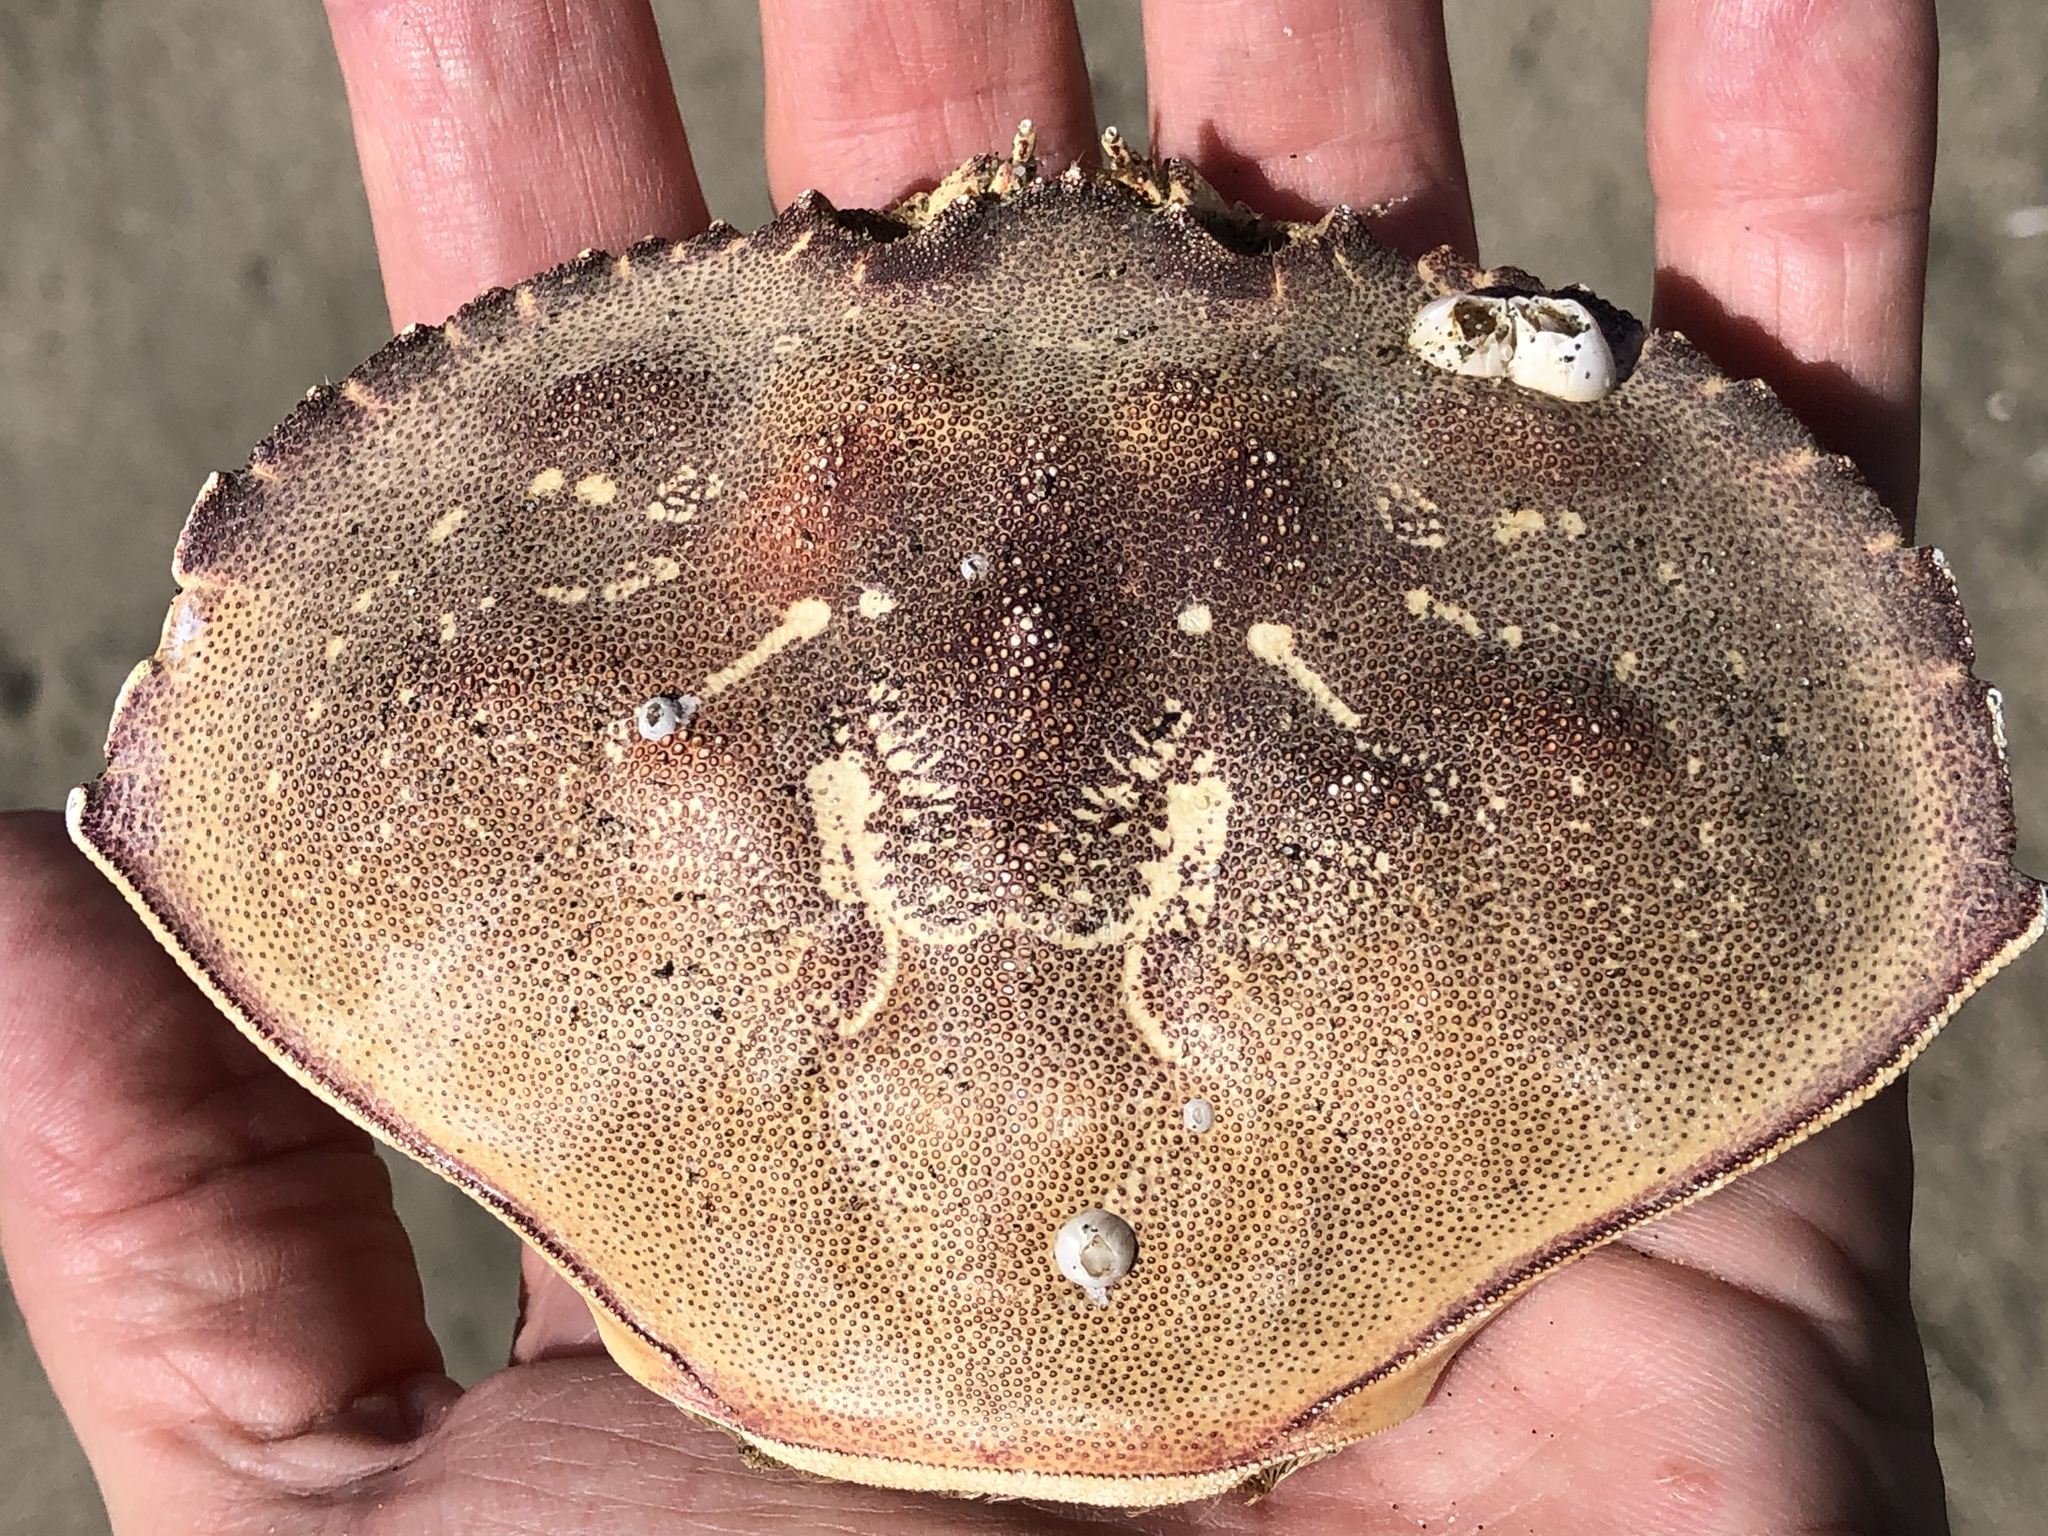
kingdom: Animalia
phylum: Arthropoda
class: Malacostraca
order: Decapoda
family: Cancridae
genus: Metacarcinus
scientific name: Metacarcinus magister
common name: Californian crab
